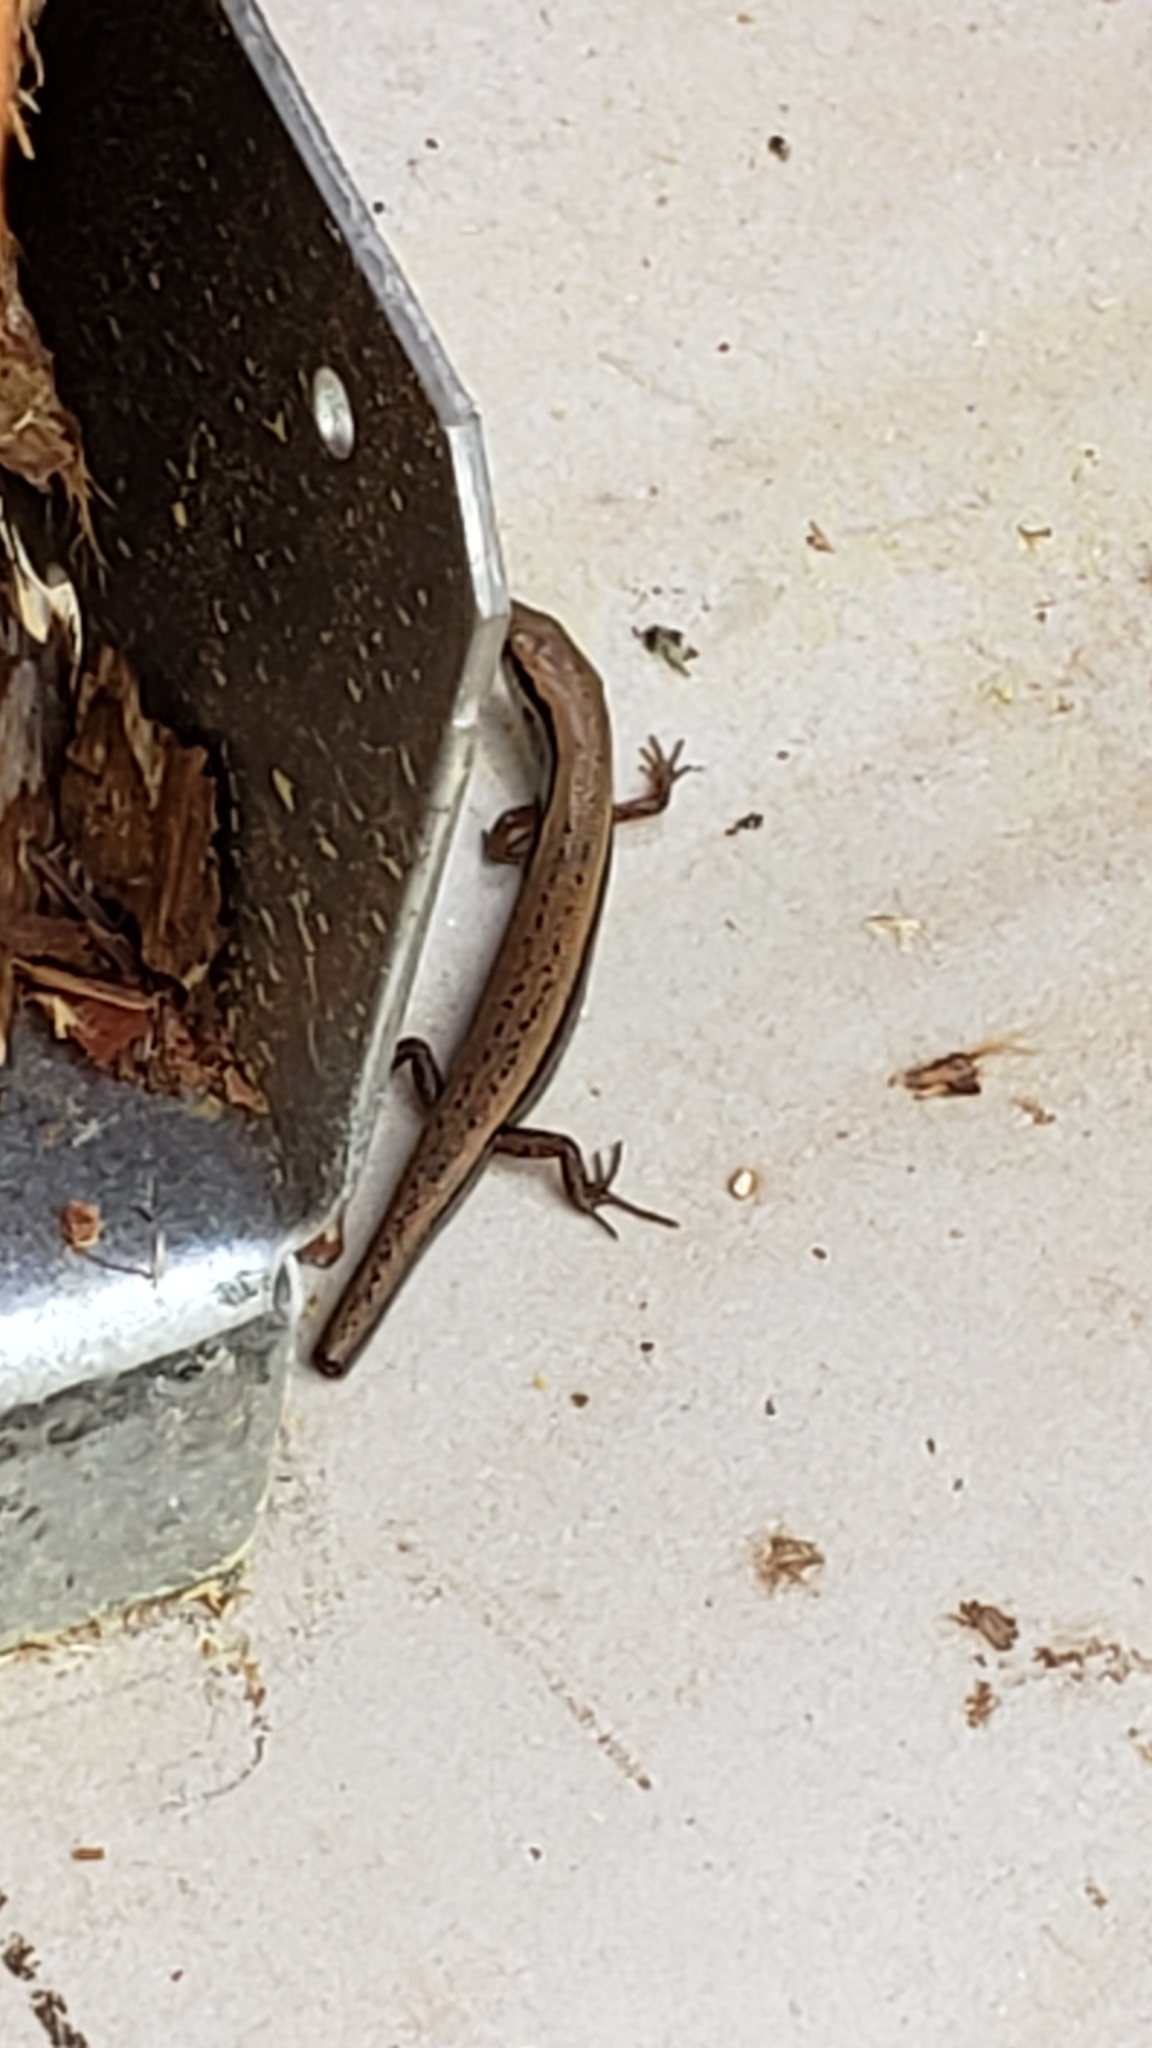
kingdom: Animalia
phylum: Chordata
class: Squamata
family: Scincidae
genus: Scincella
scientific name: Scincella lateralis
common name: Ground skink
